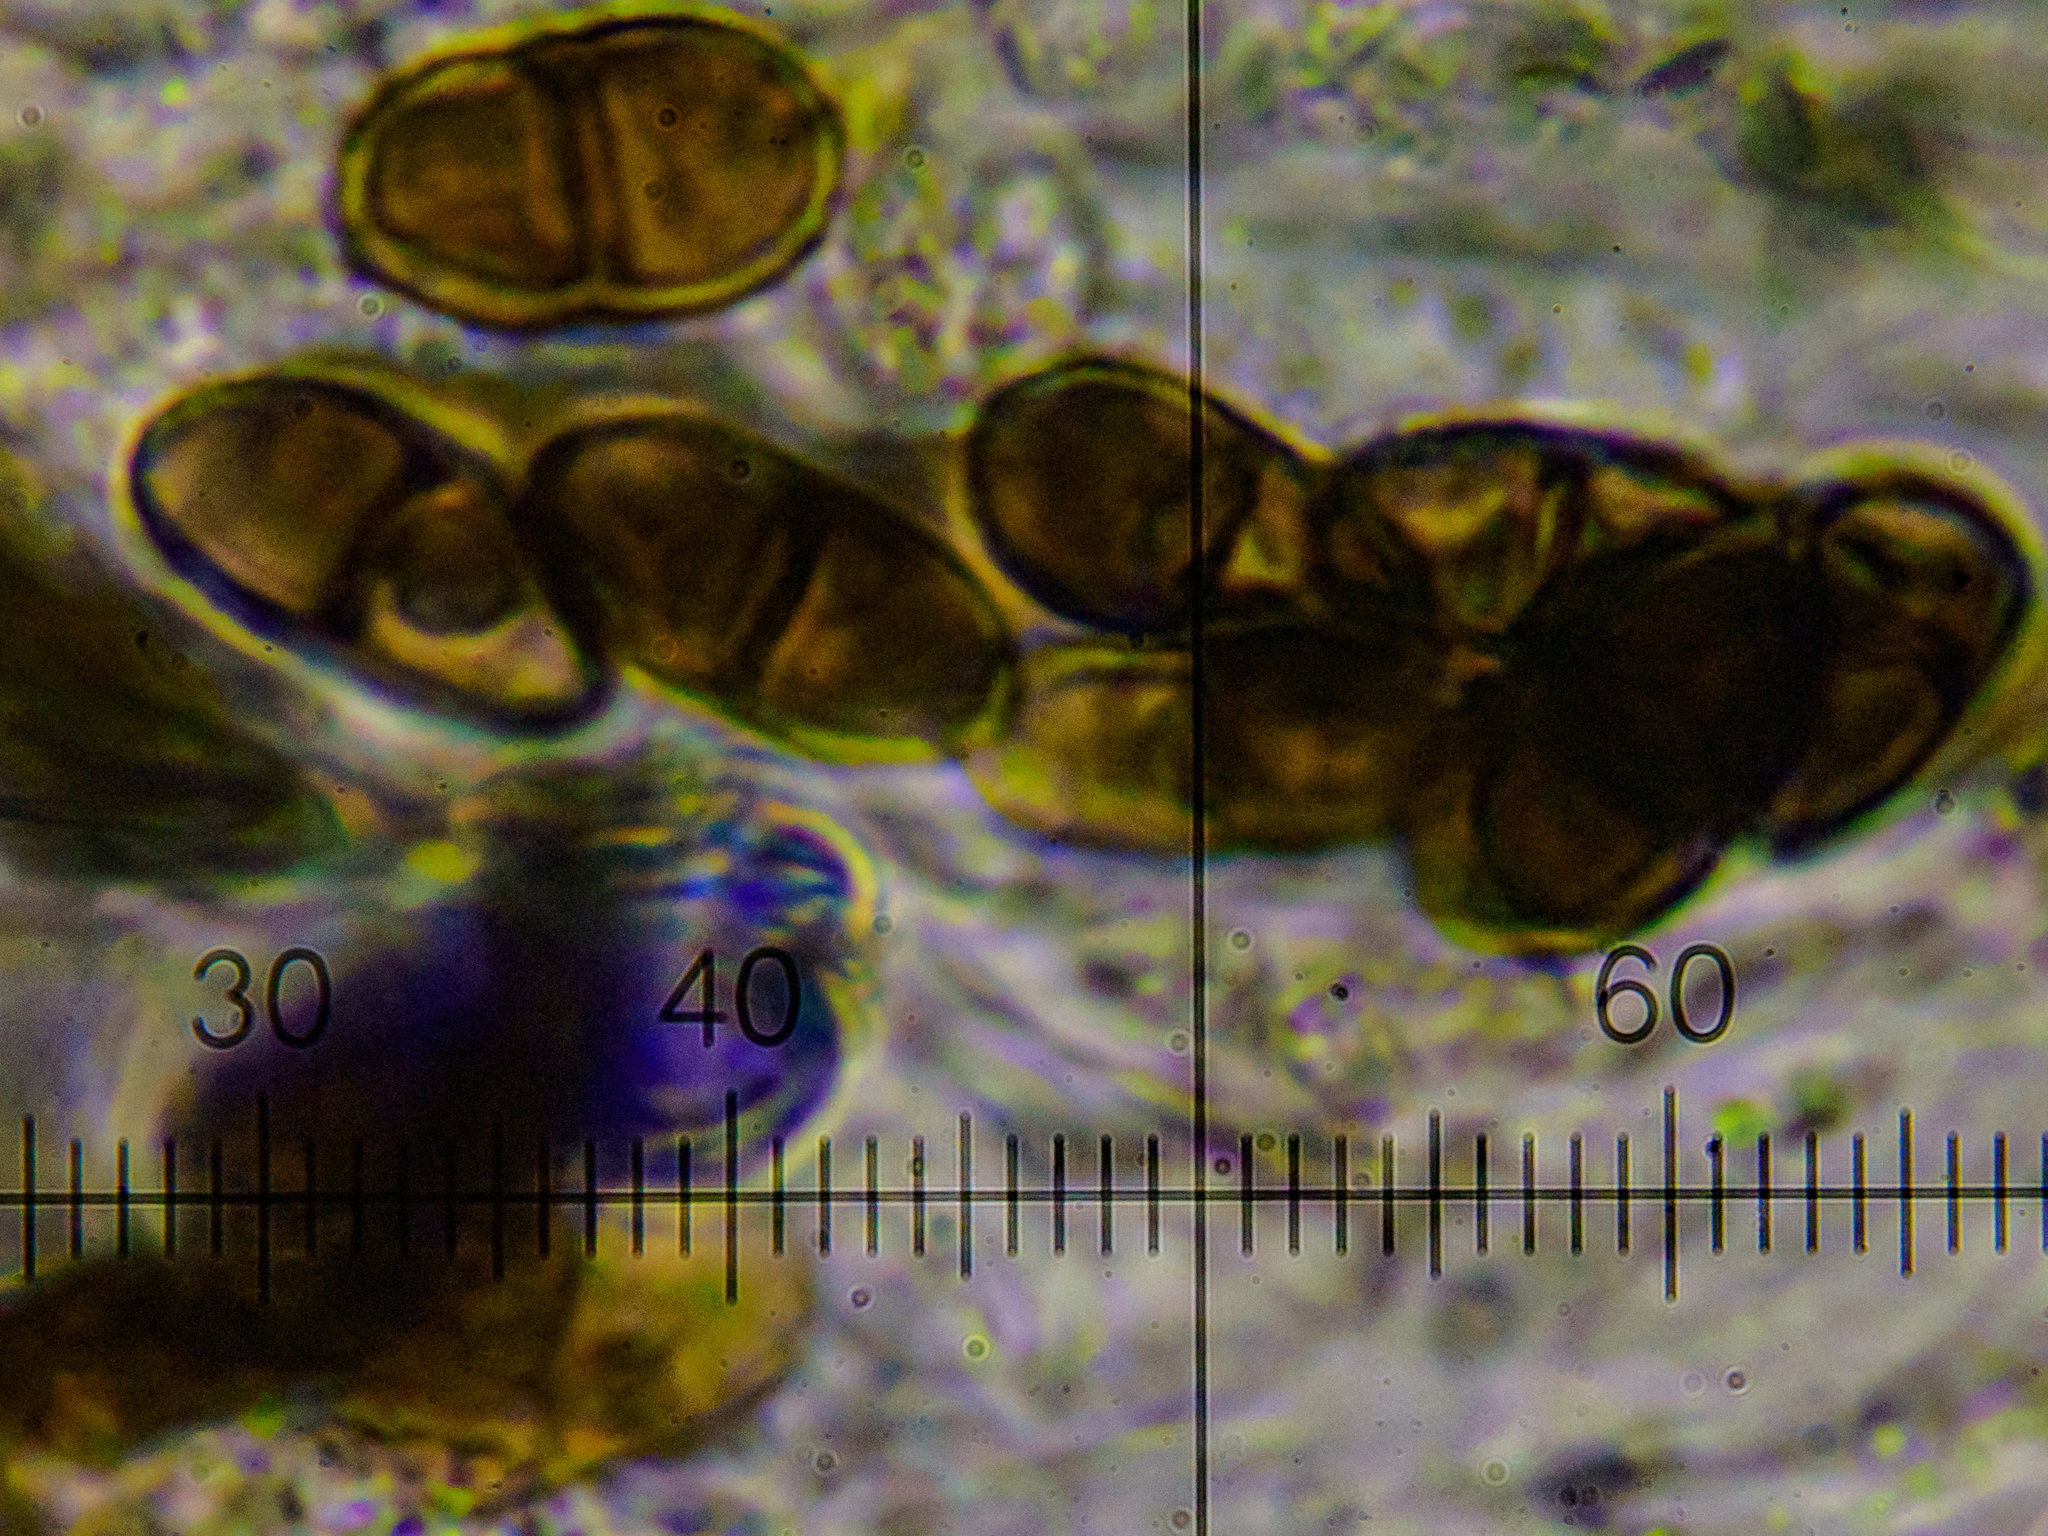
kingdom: Fungi
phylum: Ascomycota
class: Lecanoromycetes
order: Caliciales
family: Caliciaceae
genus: Amandinea
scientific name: Amandinea punctata
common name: Tiny button lichen
